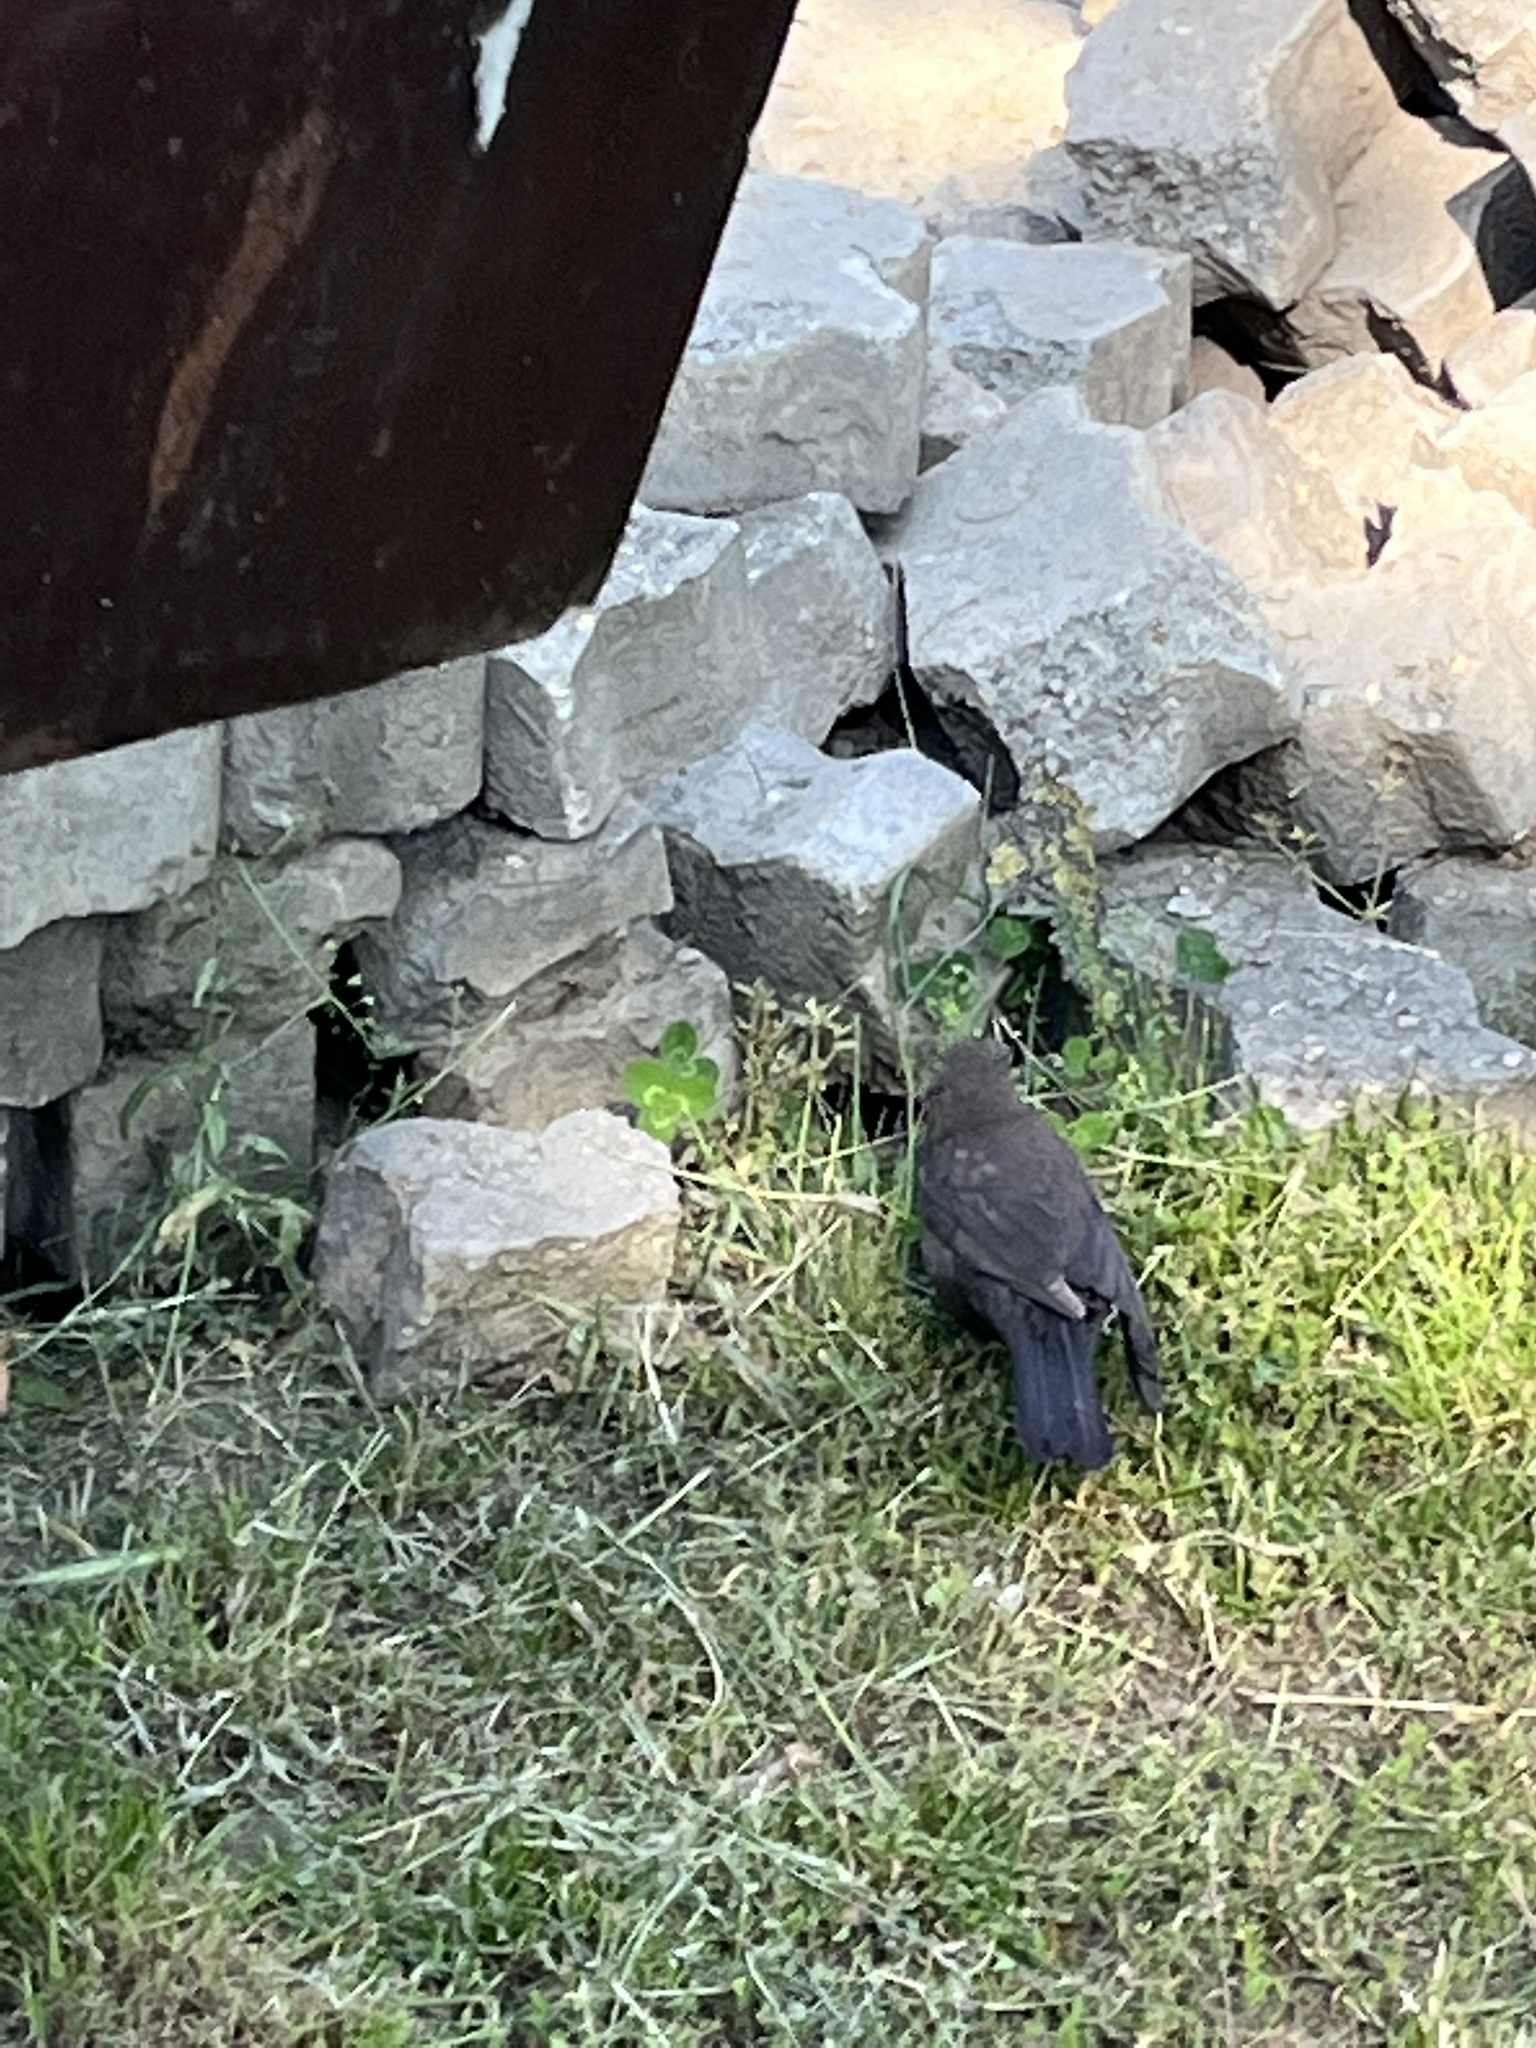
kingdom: Animalia
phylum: Chordata
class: Aves
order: Passeriformes
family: Turdidae
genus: Turdus
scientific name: Turdus merula
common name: Common blackbird
